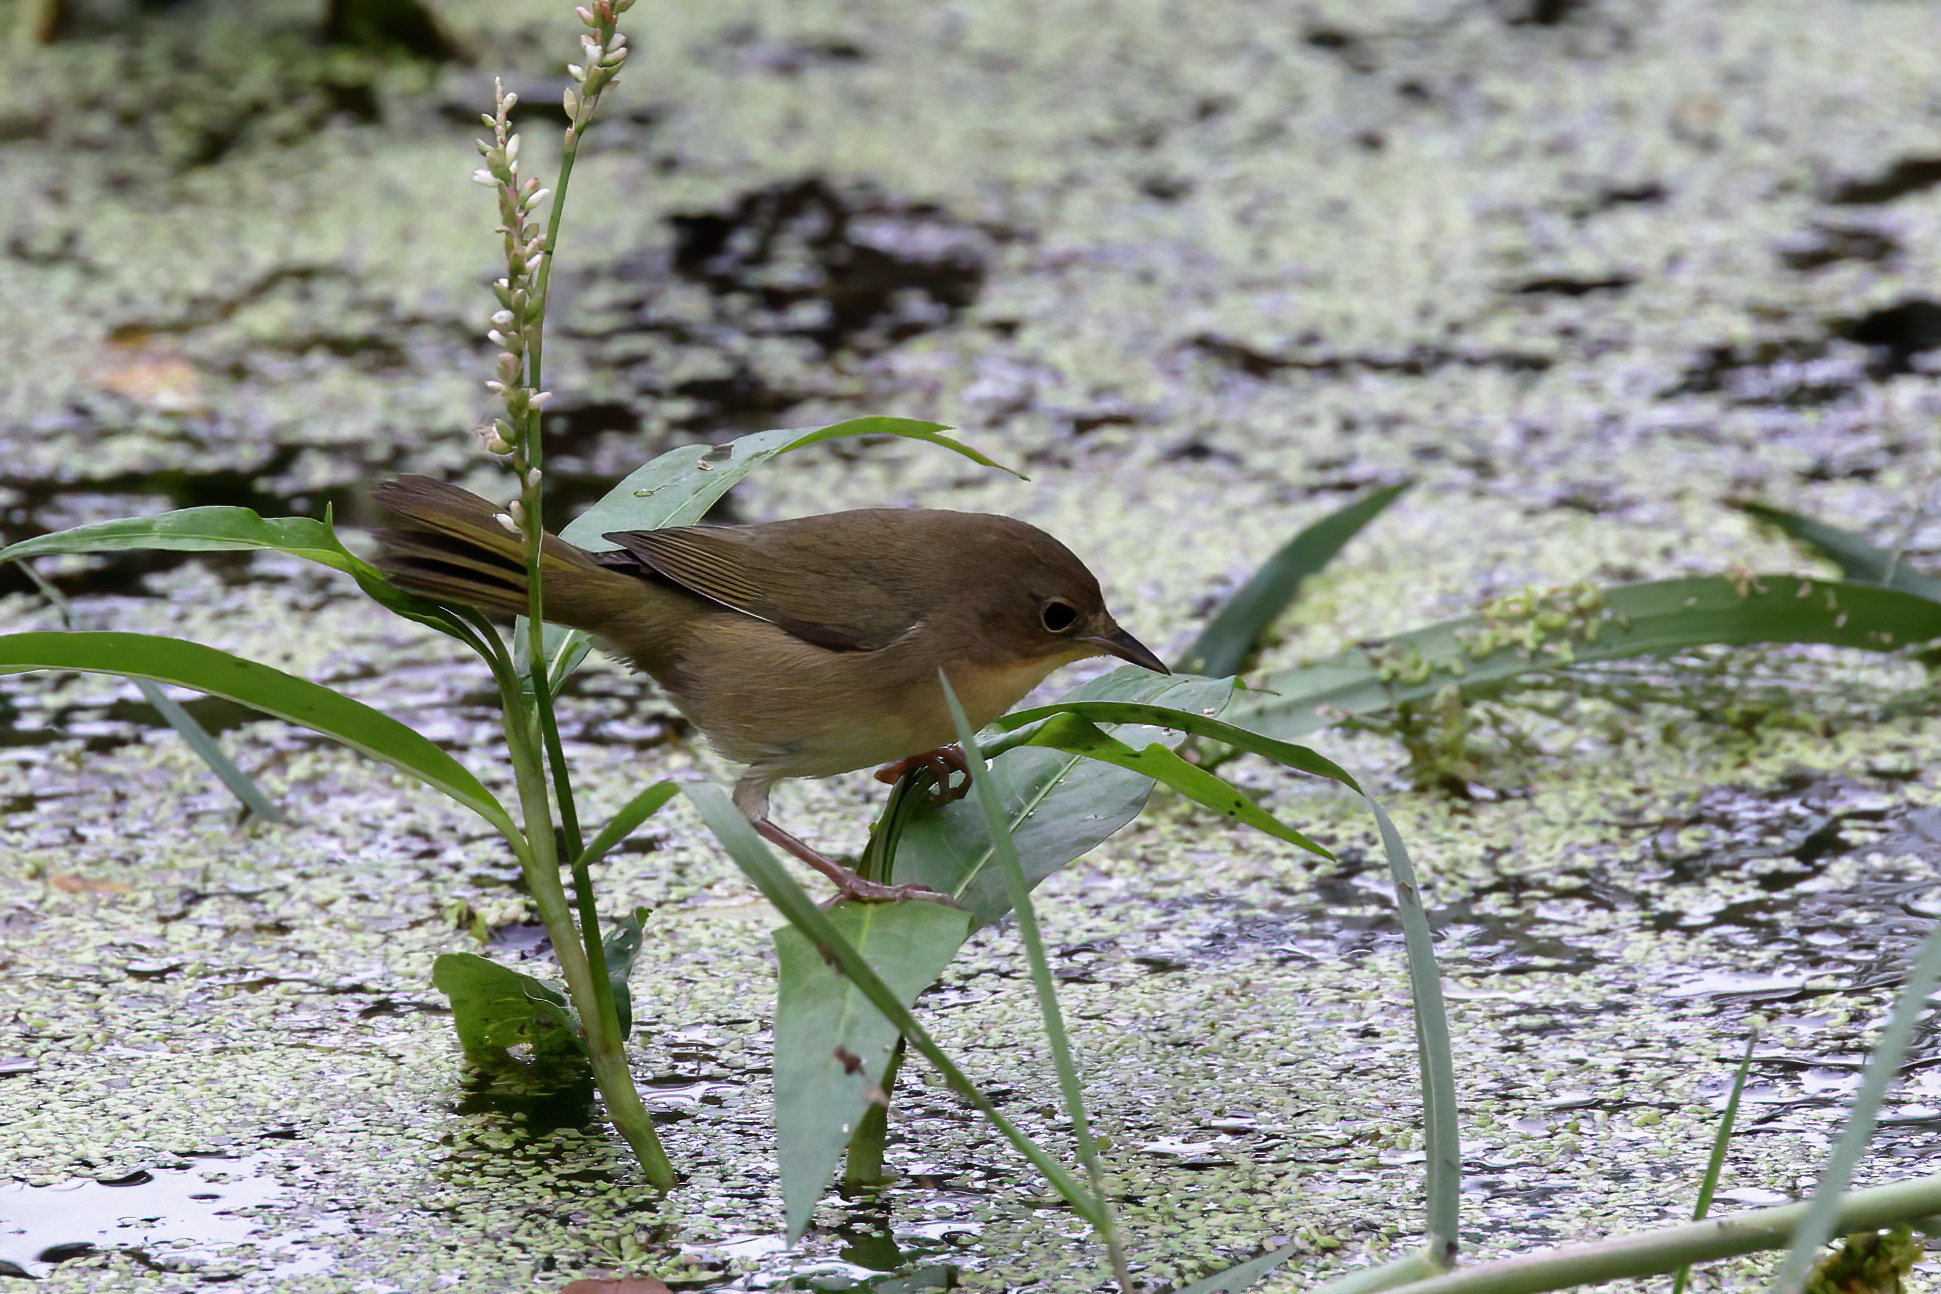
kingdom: Animalia
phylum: Chordata
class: Aves
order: Passeriformes
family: Parulidae
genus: Geothlypis
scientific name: Geothlypis trichas
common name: Common yellowthroat
